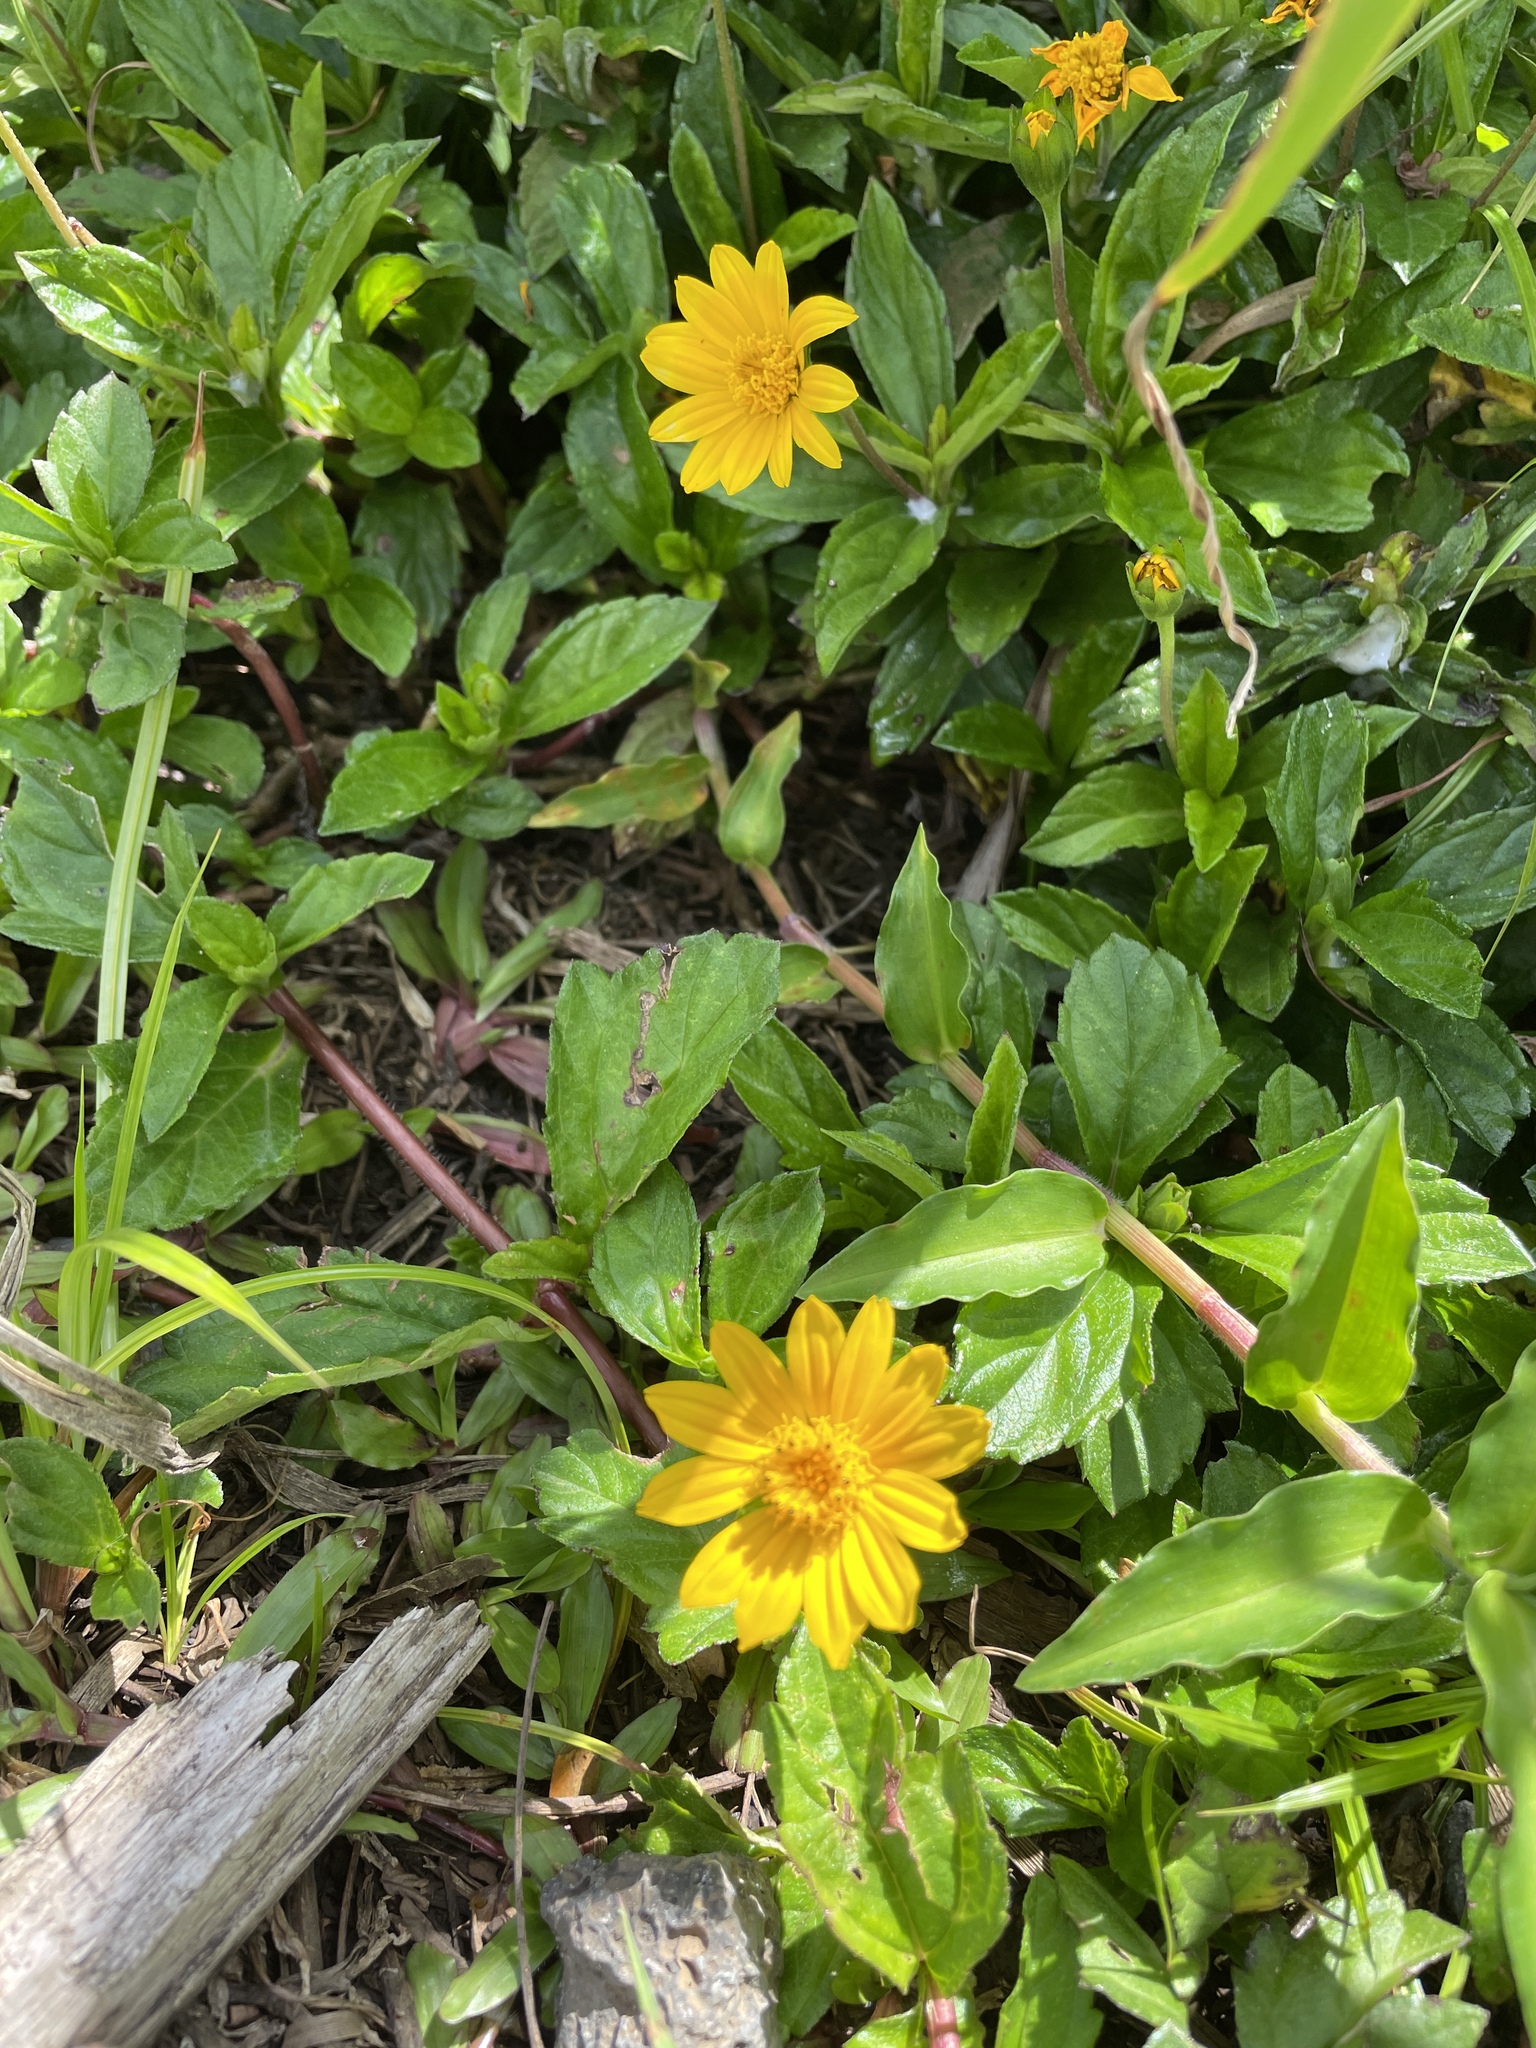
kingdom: Plantae
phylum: Tracheophyta
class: Magnoliopsida
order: Asterales
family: Asteraceae
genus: Sphagneticola
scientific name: Sphagneticola trilobata
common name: Bay biscayne creeping-oxeye
